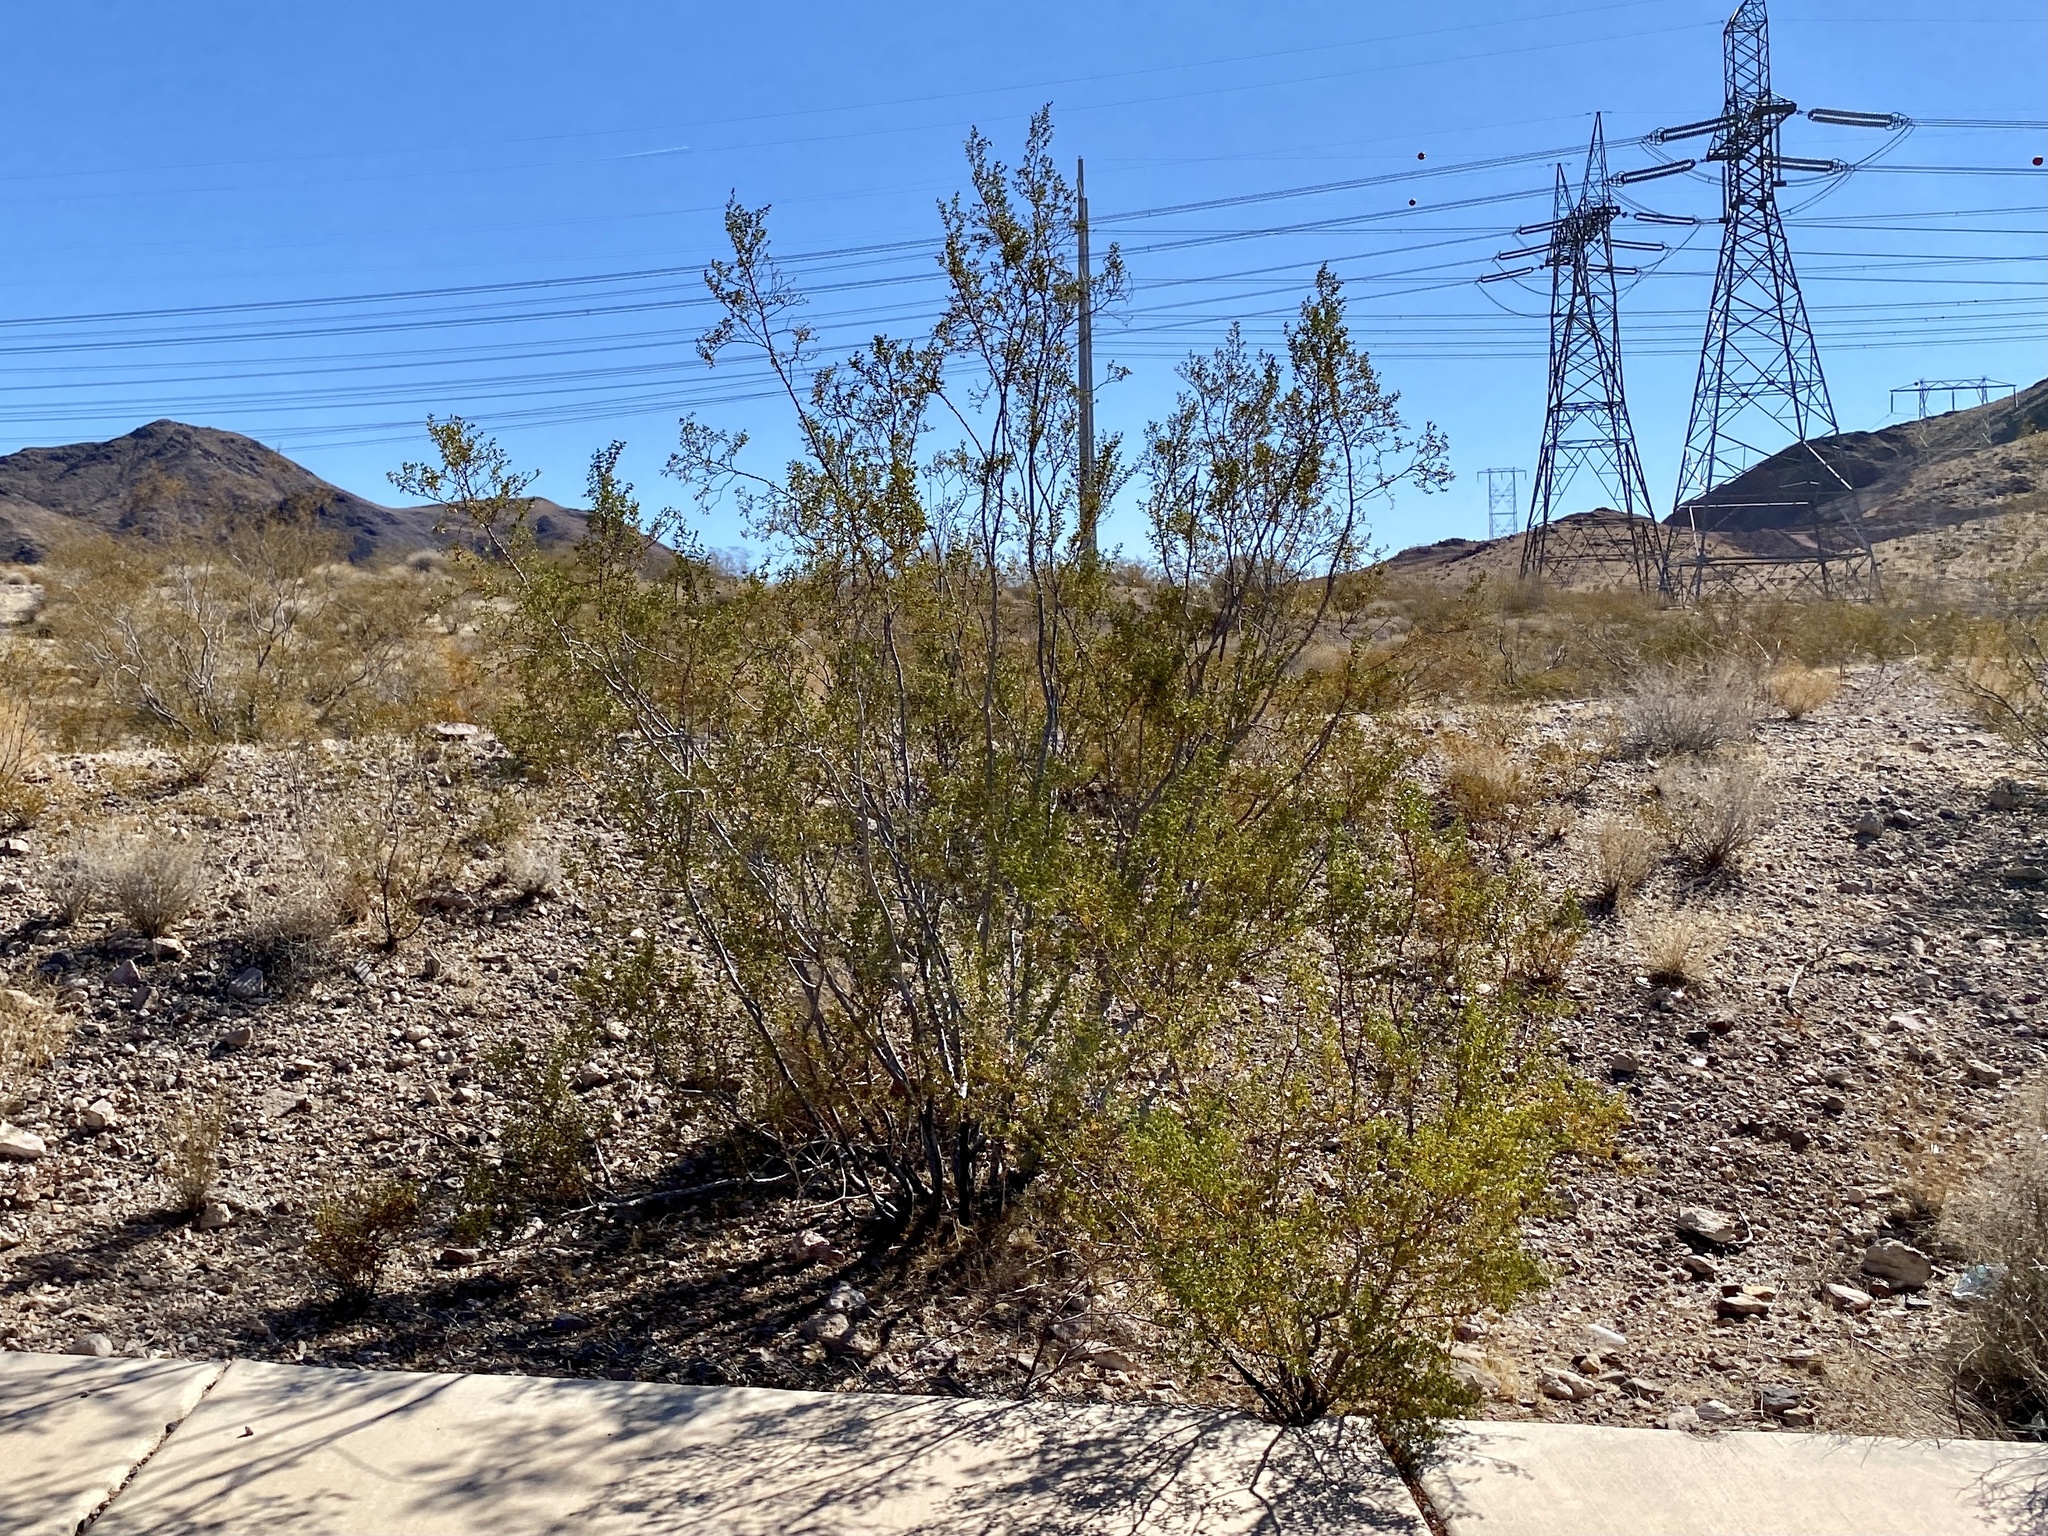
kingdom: Plantae
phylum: Tracheophyta
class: Magnoliopsida
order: Zygophyllales
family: Zygophyllaceae
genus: Larrea
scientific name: Larrea tridentata
